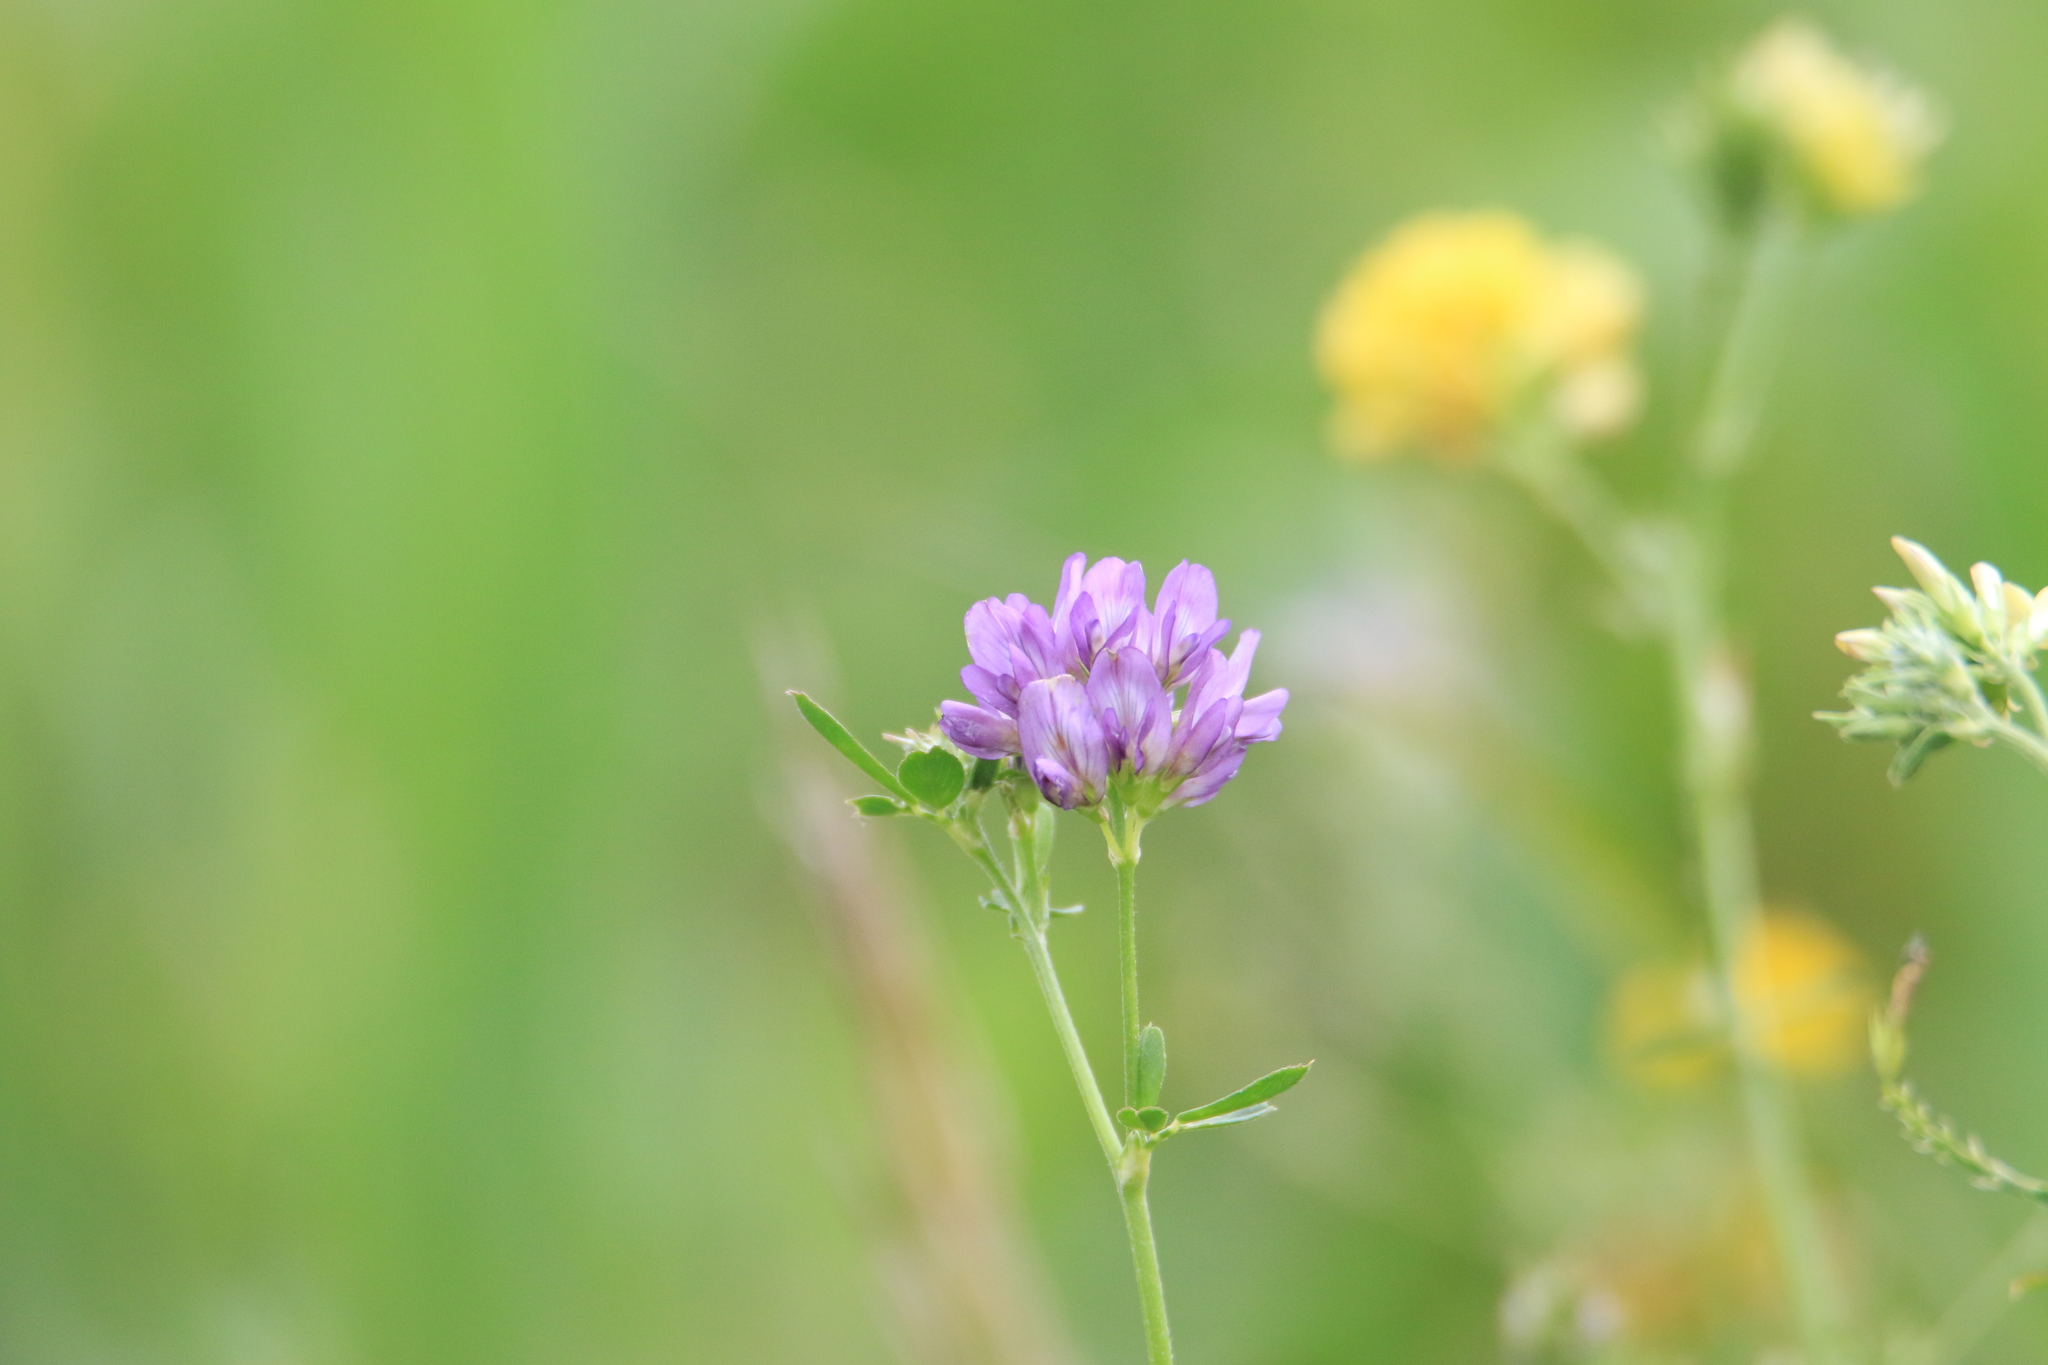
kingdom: Plantae
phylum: Tracheophyta
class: Magnoliopsida
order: Fabales
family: Fabaceae
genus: Medicago
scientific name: Medicago varia
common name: Sand lucerne
